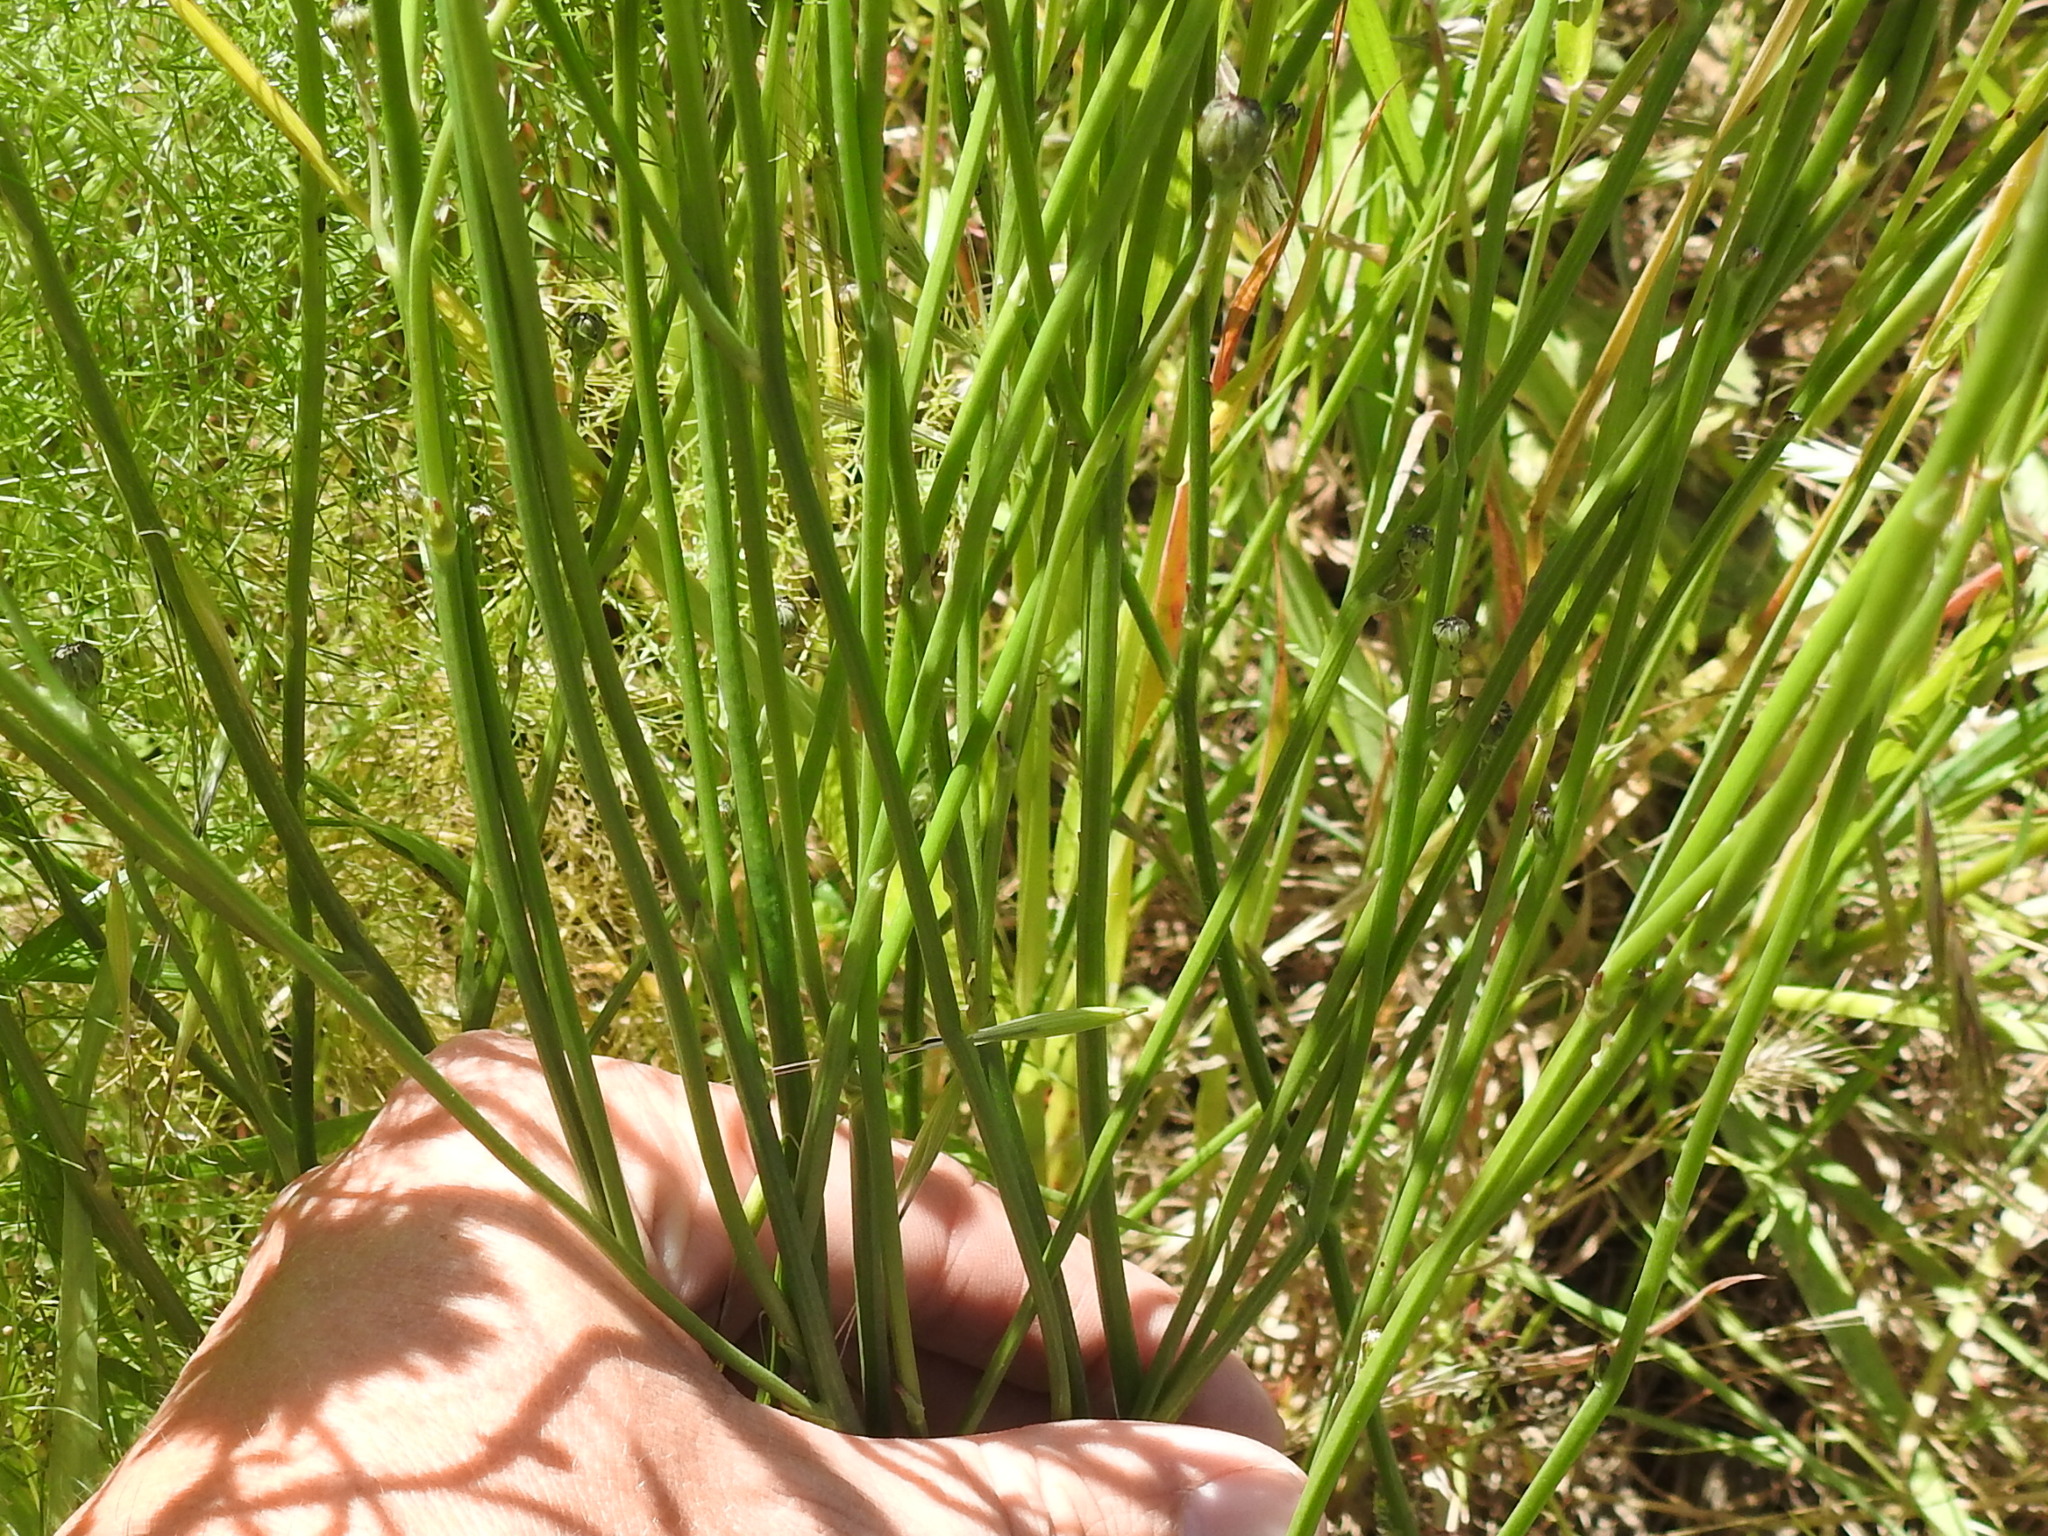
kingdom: Plantae
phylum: Tracheophyta
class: Magnoliopsida
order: Asterales
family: Asteraceae
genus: Hypochaeris
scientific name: Hypochaeris radicata
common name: Flatweed
